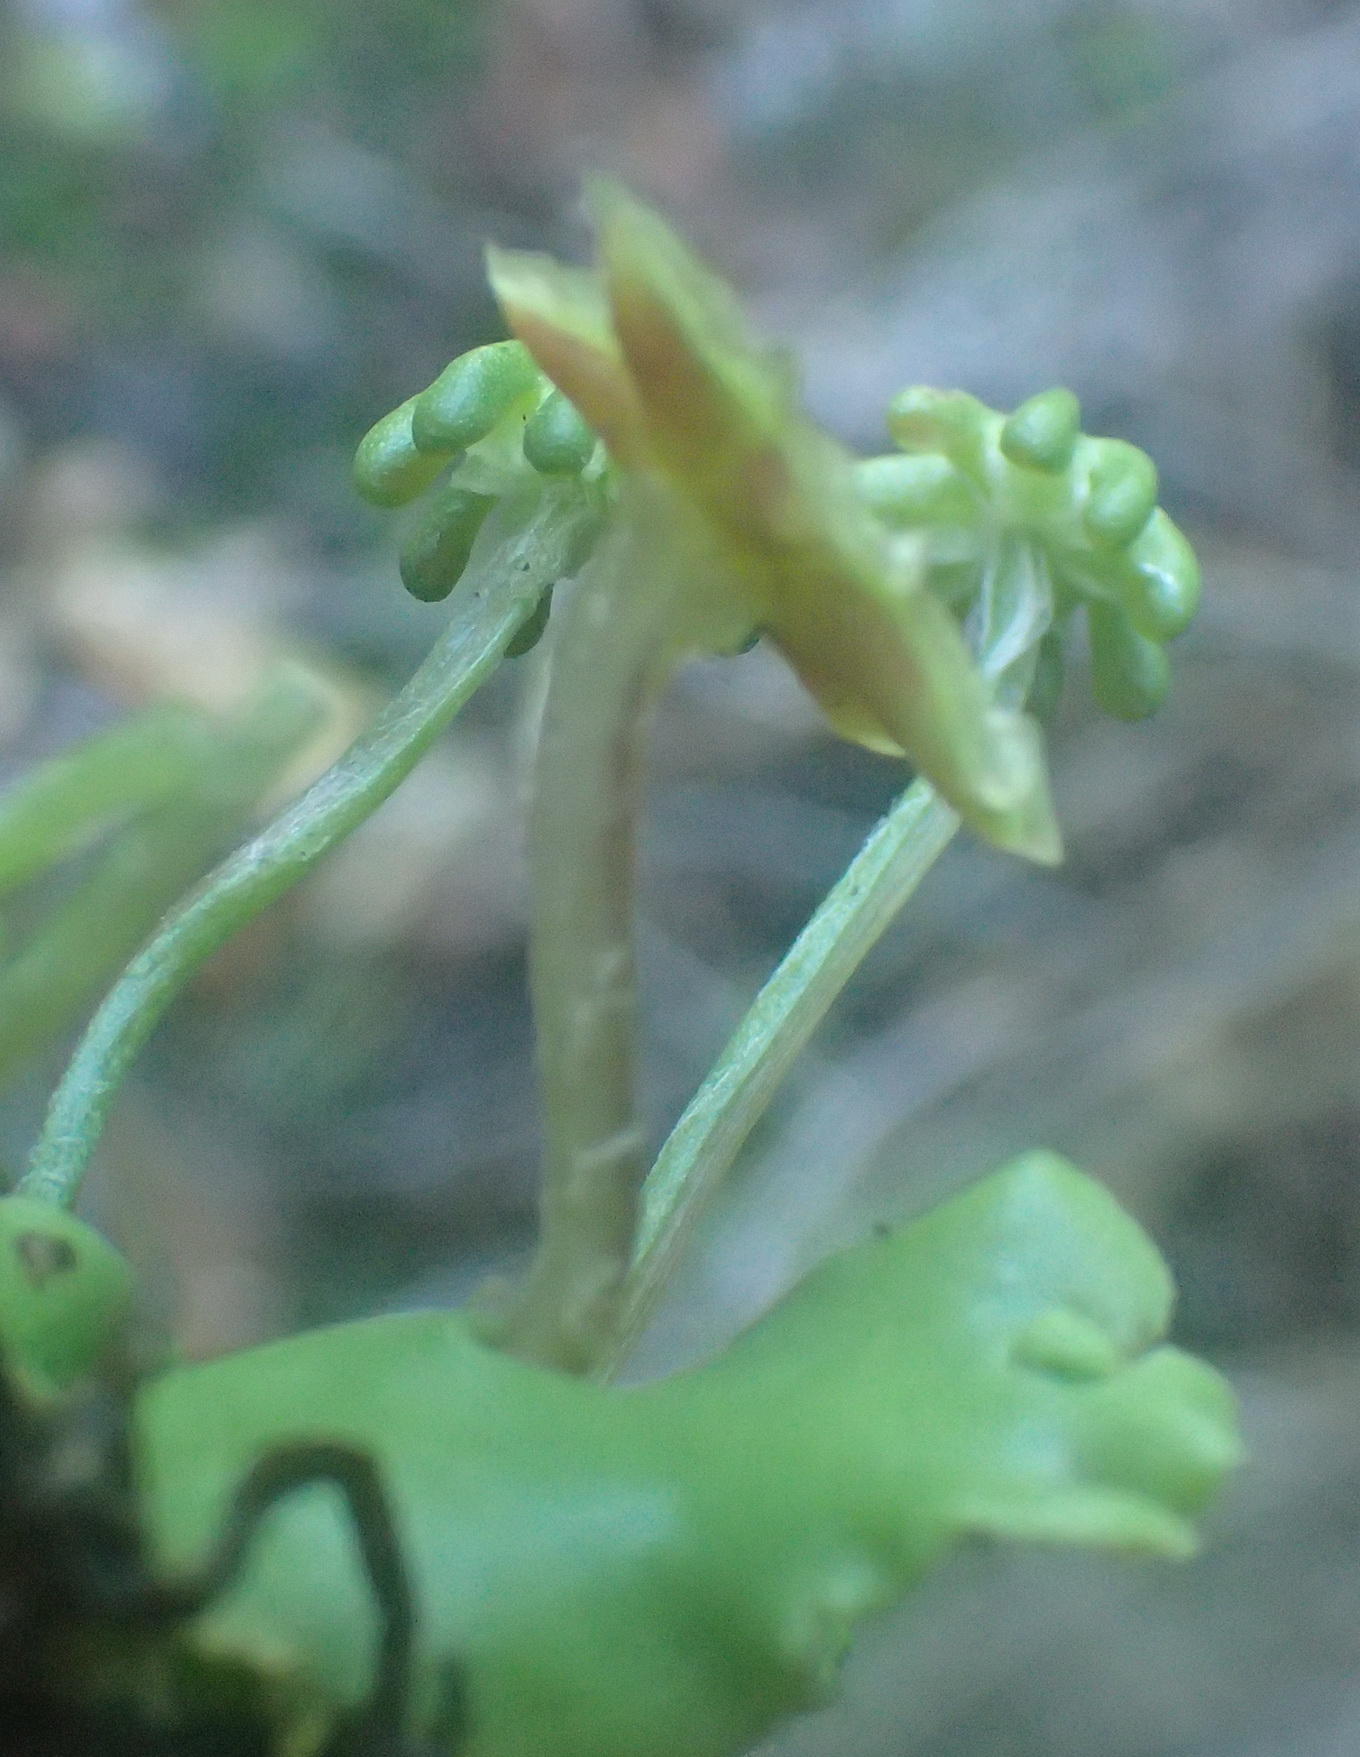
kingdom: Plantae
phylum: Marchantiophyta
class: Marchantiopsida
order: Marchantiales
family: Marchantiaceae
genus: Marchantia
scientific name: Marchantia berteroana
